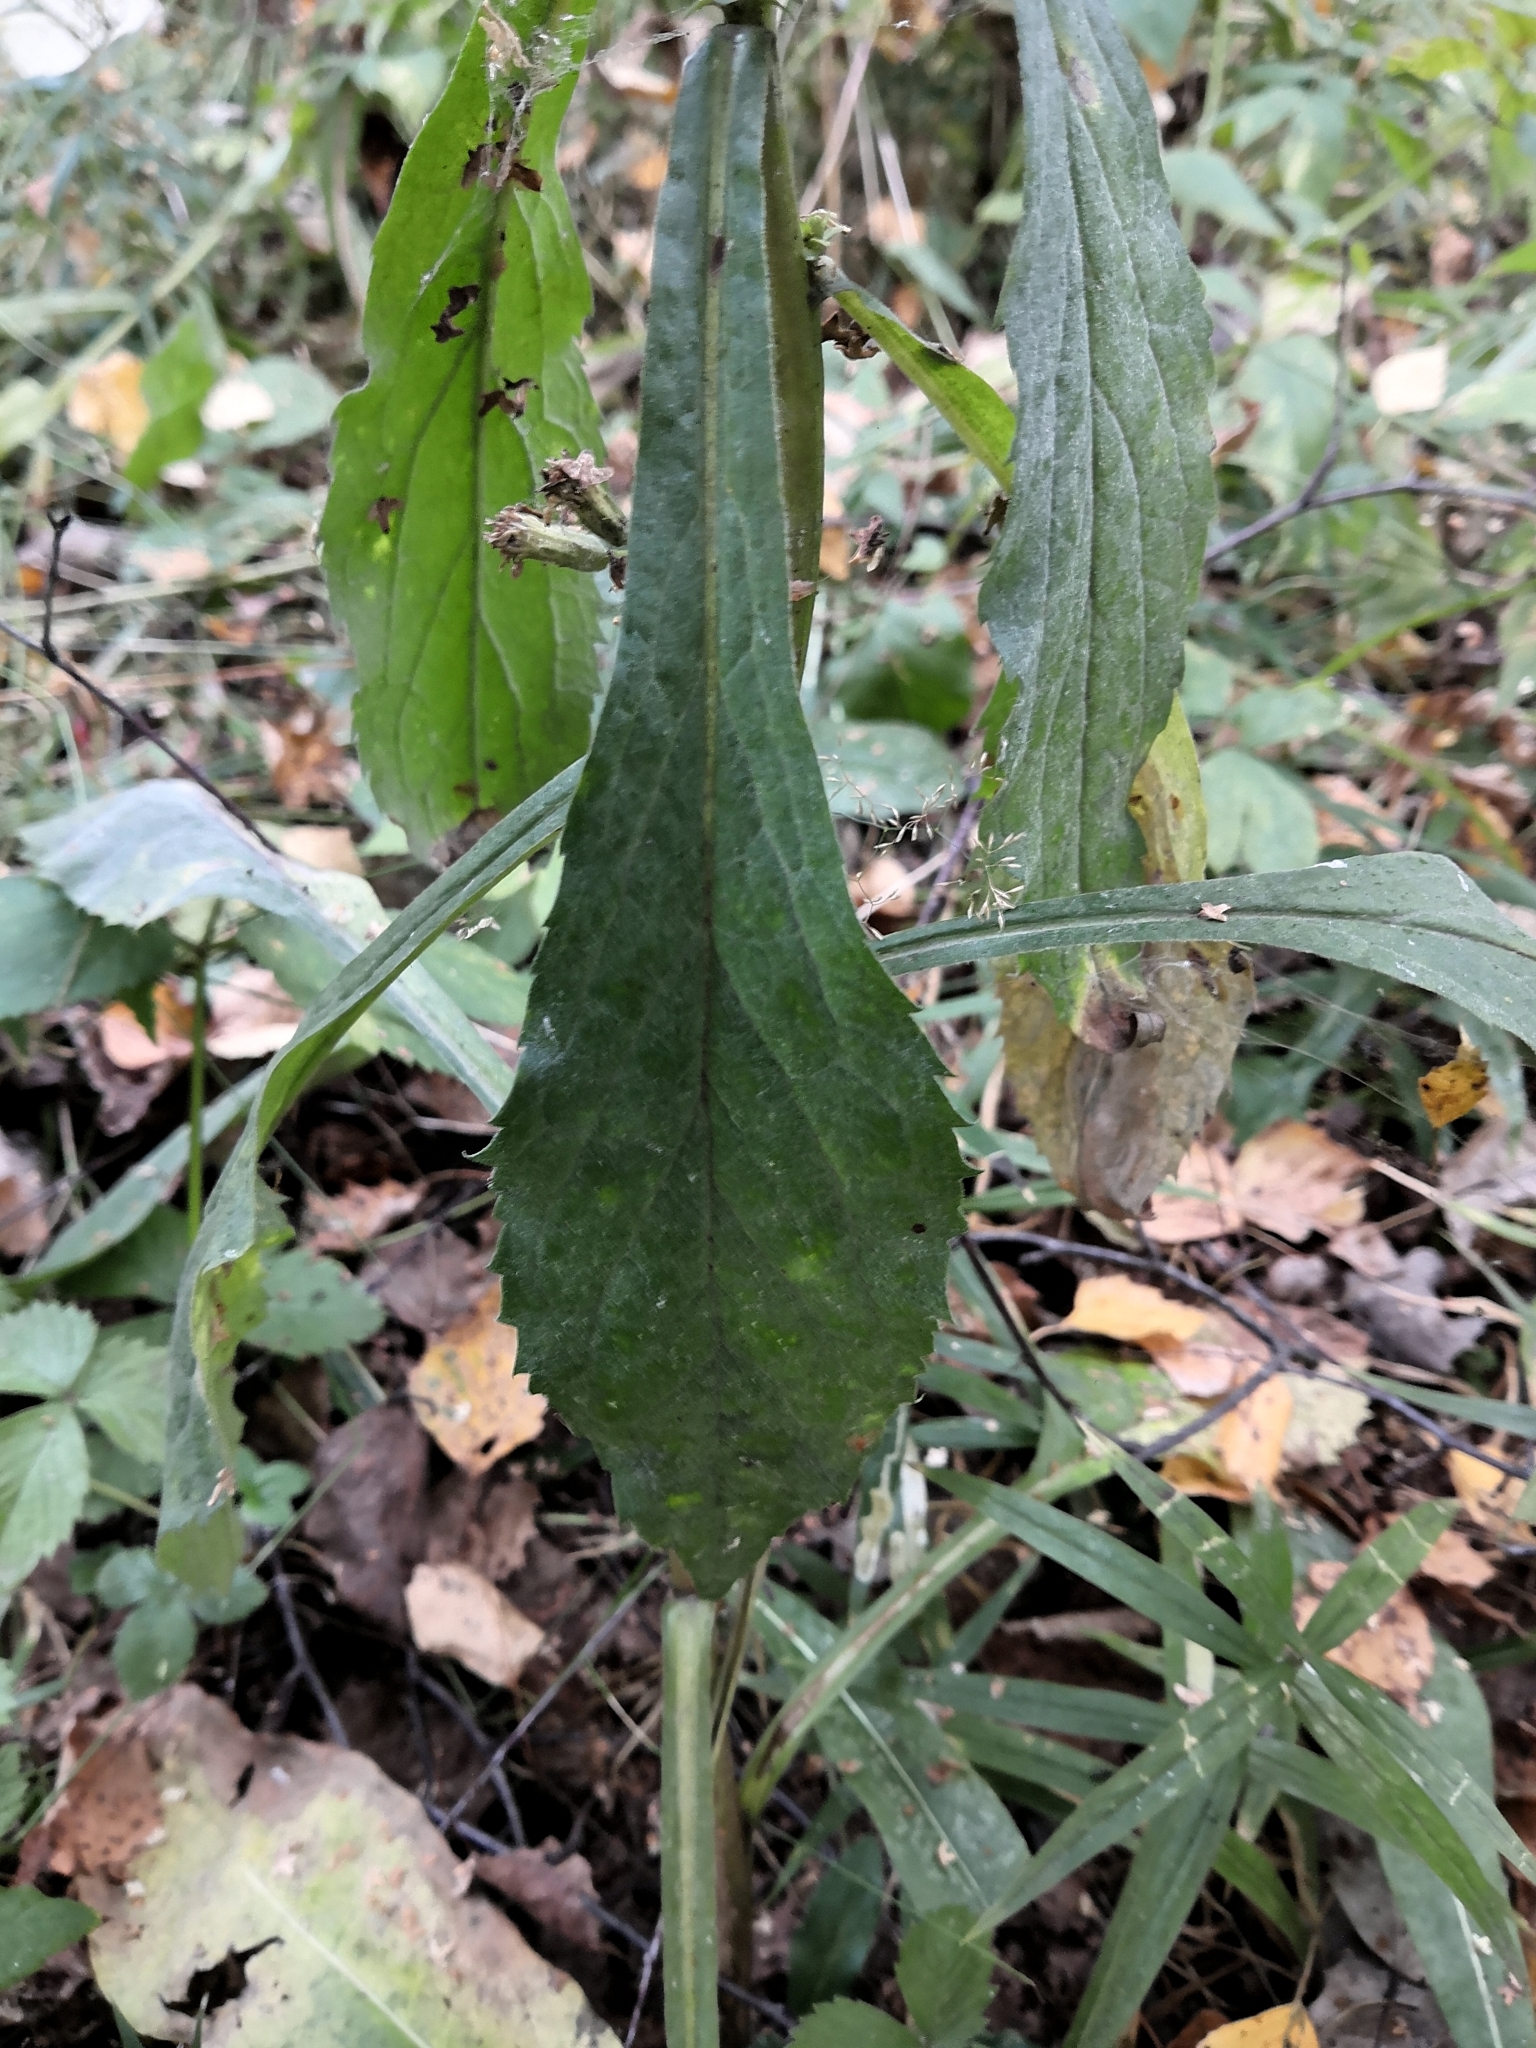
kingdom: Plantae
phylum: Tracheophyta
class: Magnoliopsida
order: Asterales
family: Asteraceae
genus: Solidago
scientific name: Solidago virgaurea
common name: Goldenrod
